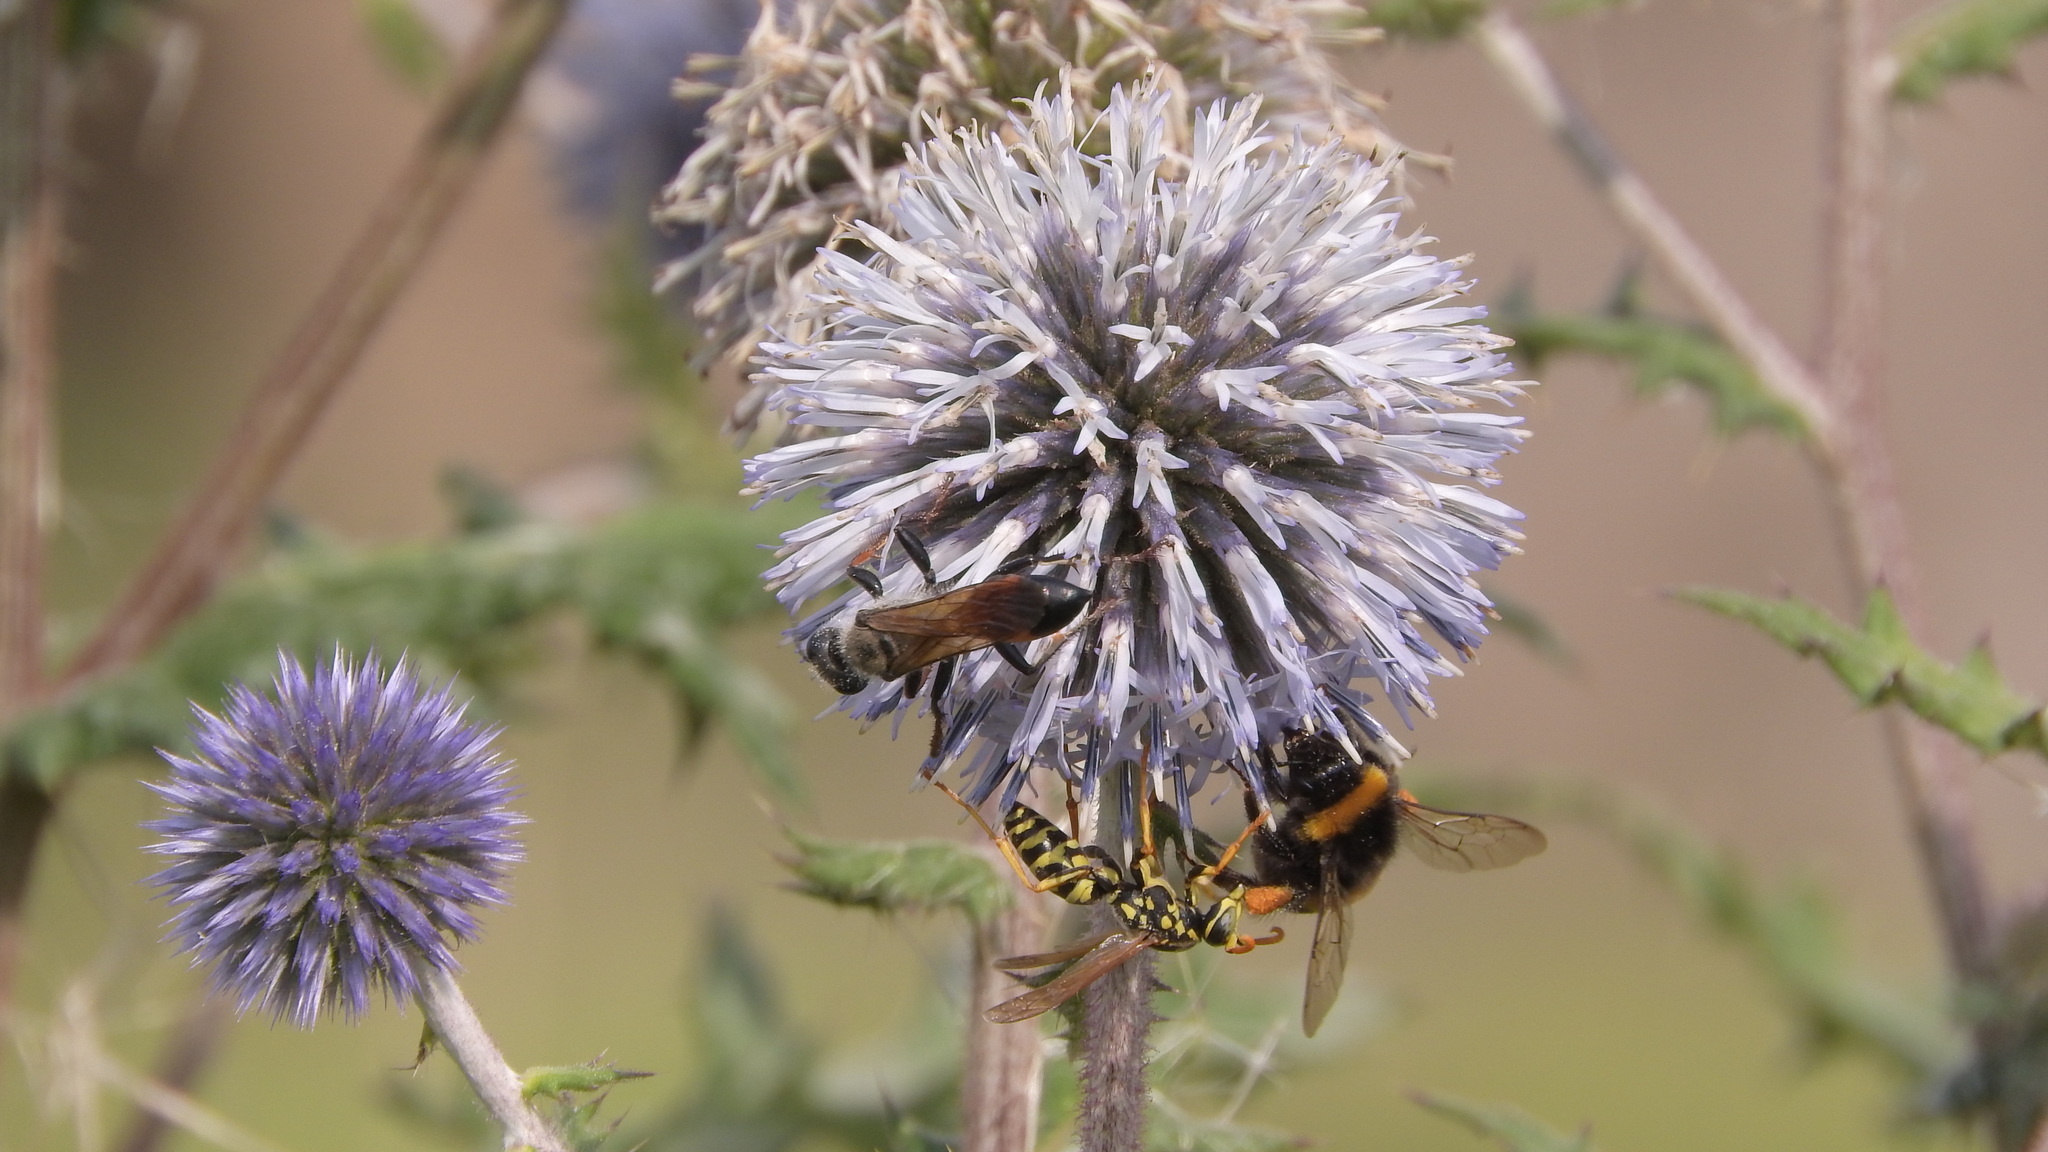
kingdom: Animalia
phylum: Arthropoda
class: Insecta
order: Hymenoptera
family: Sphecidae
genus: Sphex
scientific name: Sphex funerarius
